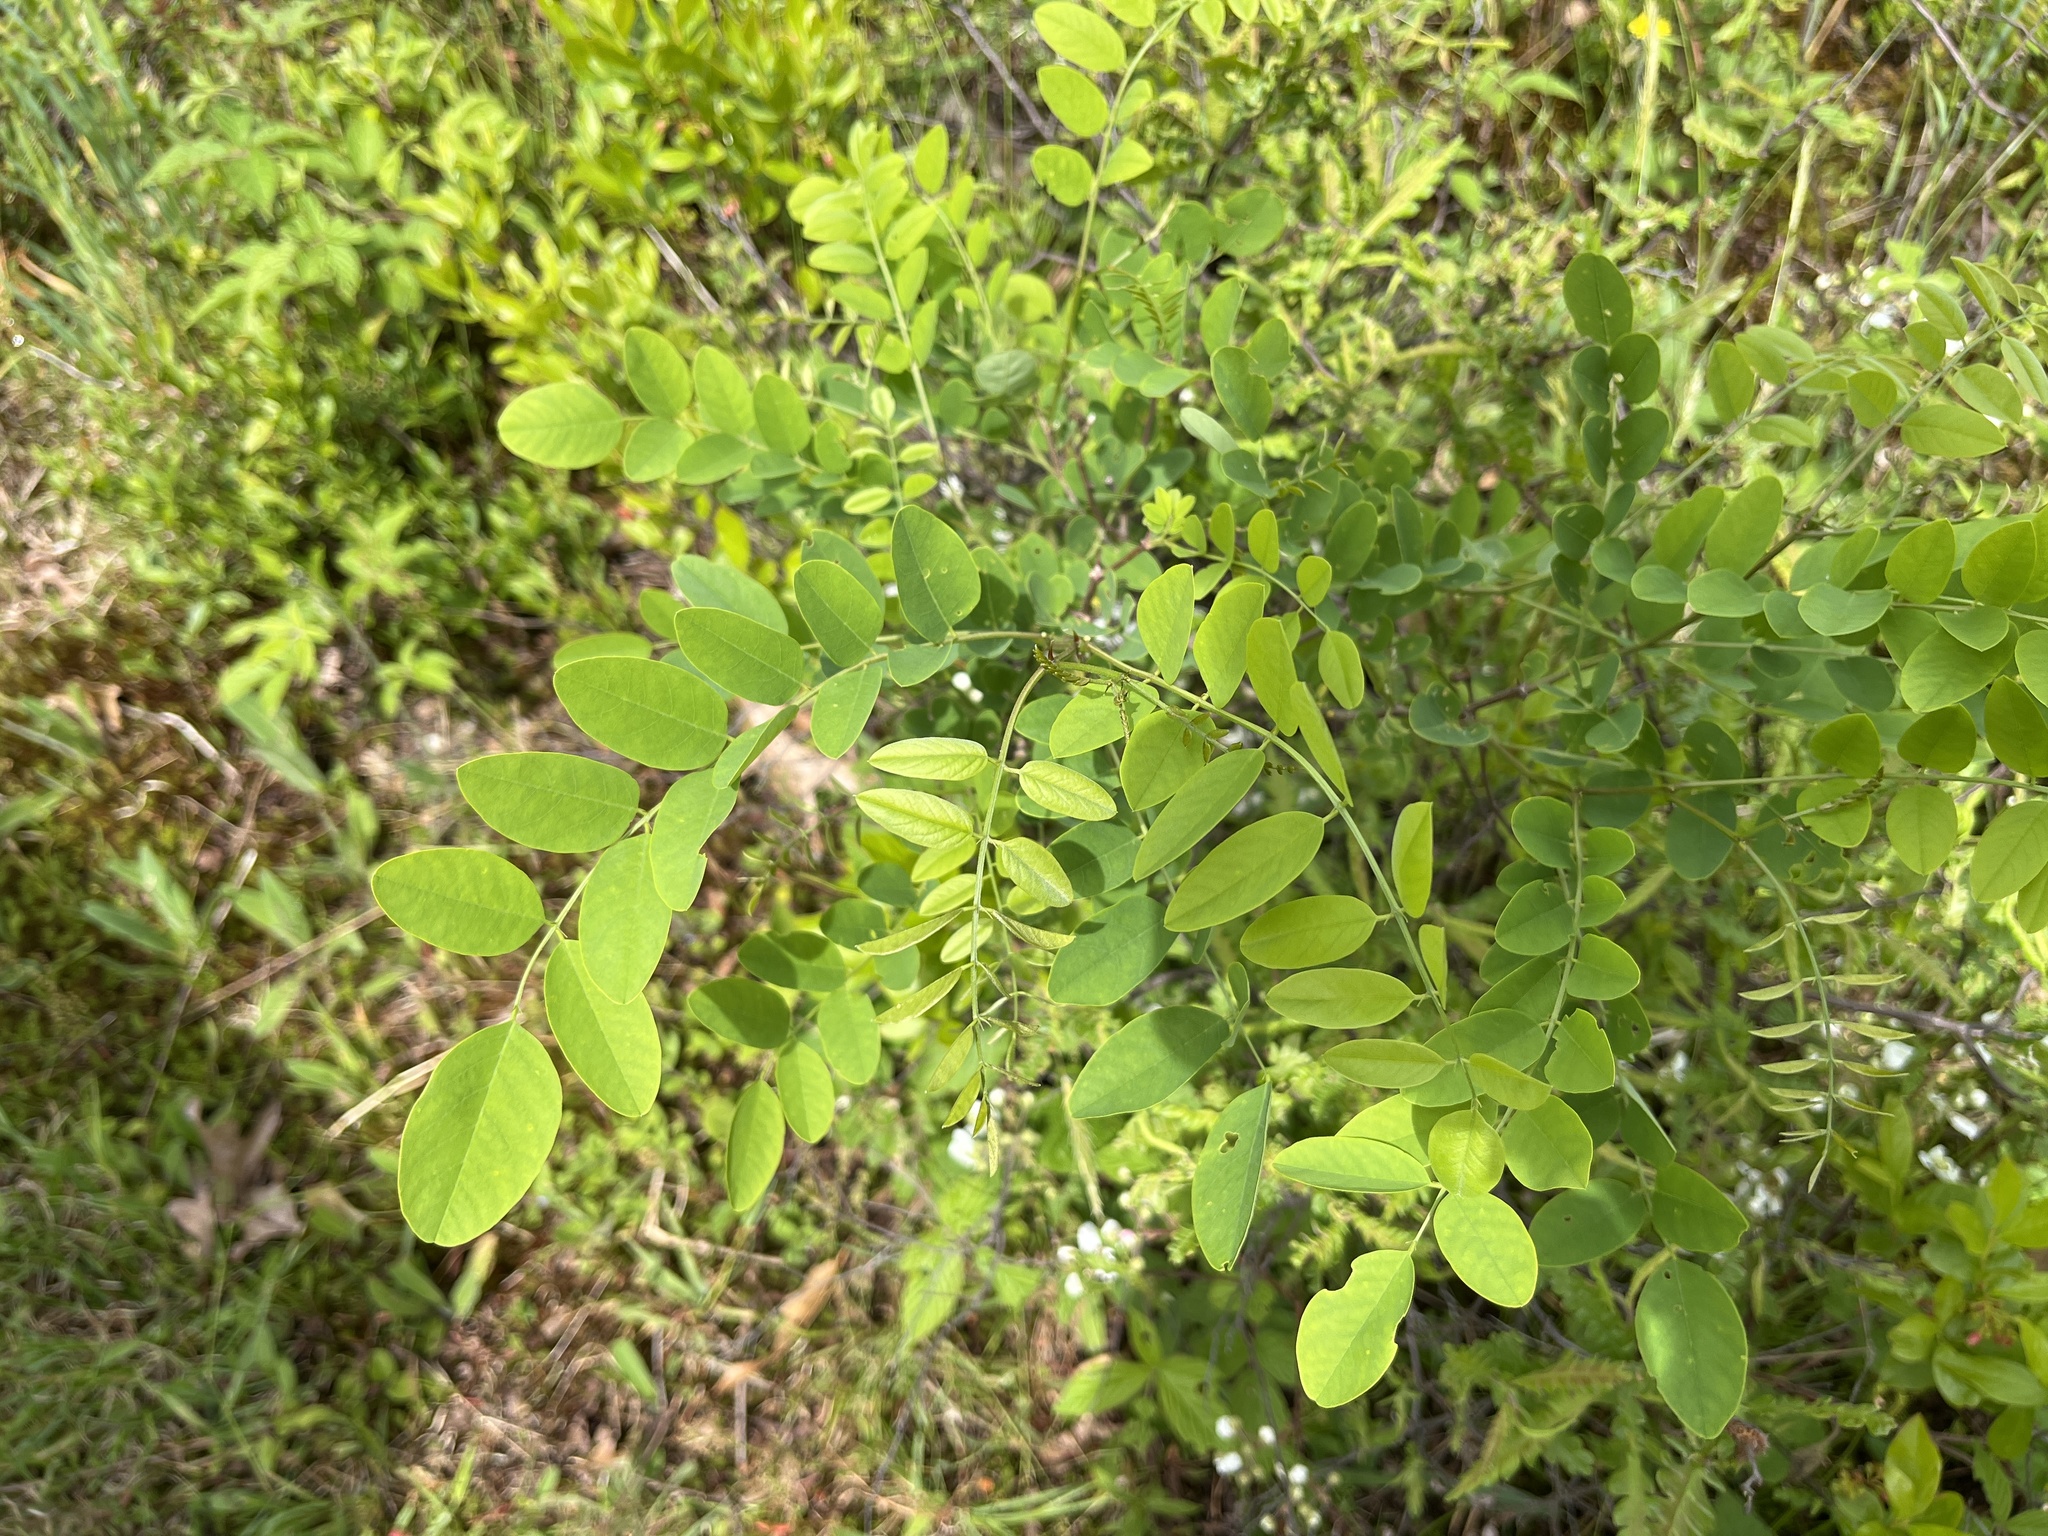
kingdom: Plantae
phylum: Tracheophyta
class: Magnoliopsida
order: Fabales
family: Fabaceae
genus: Robinia
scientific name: Robinia pseudoacacia
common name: Black locust
